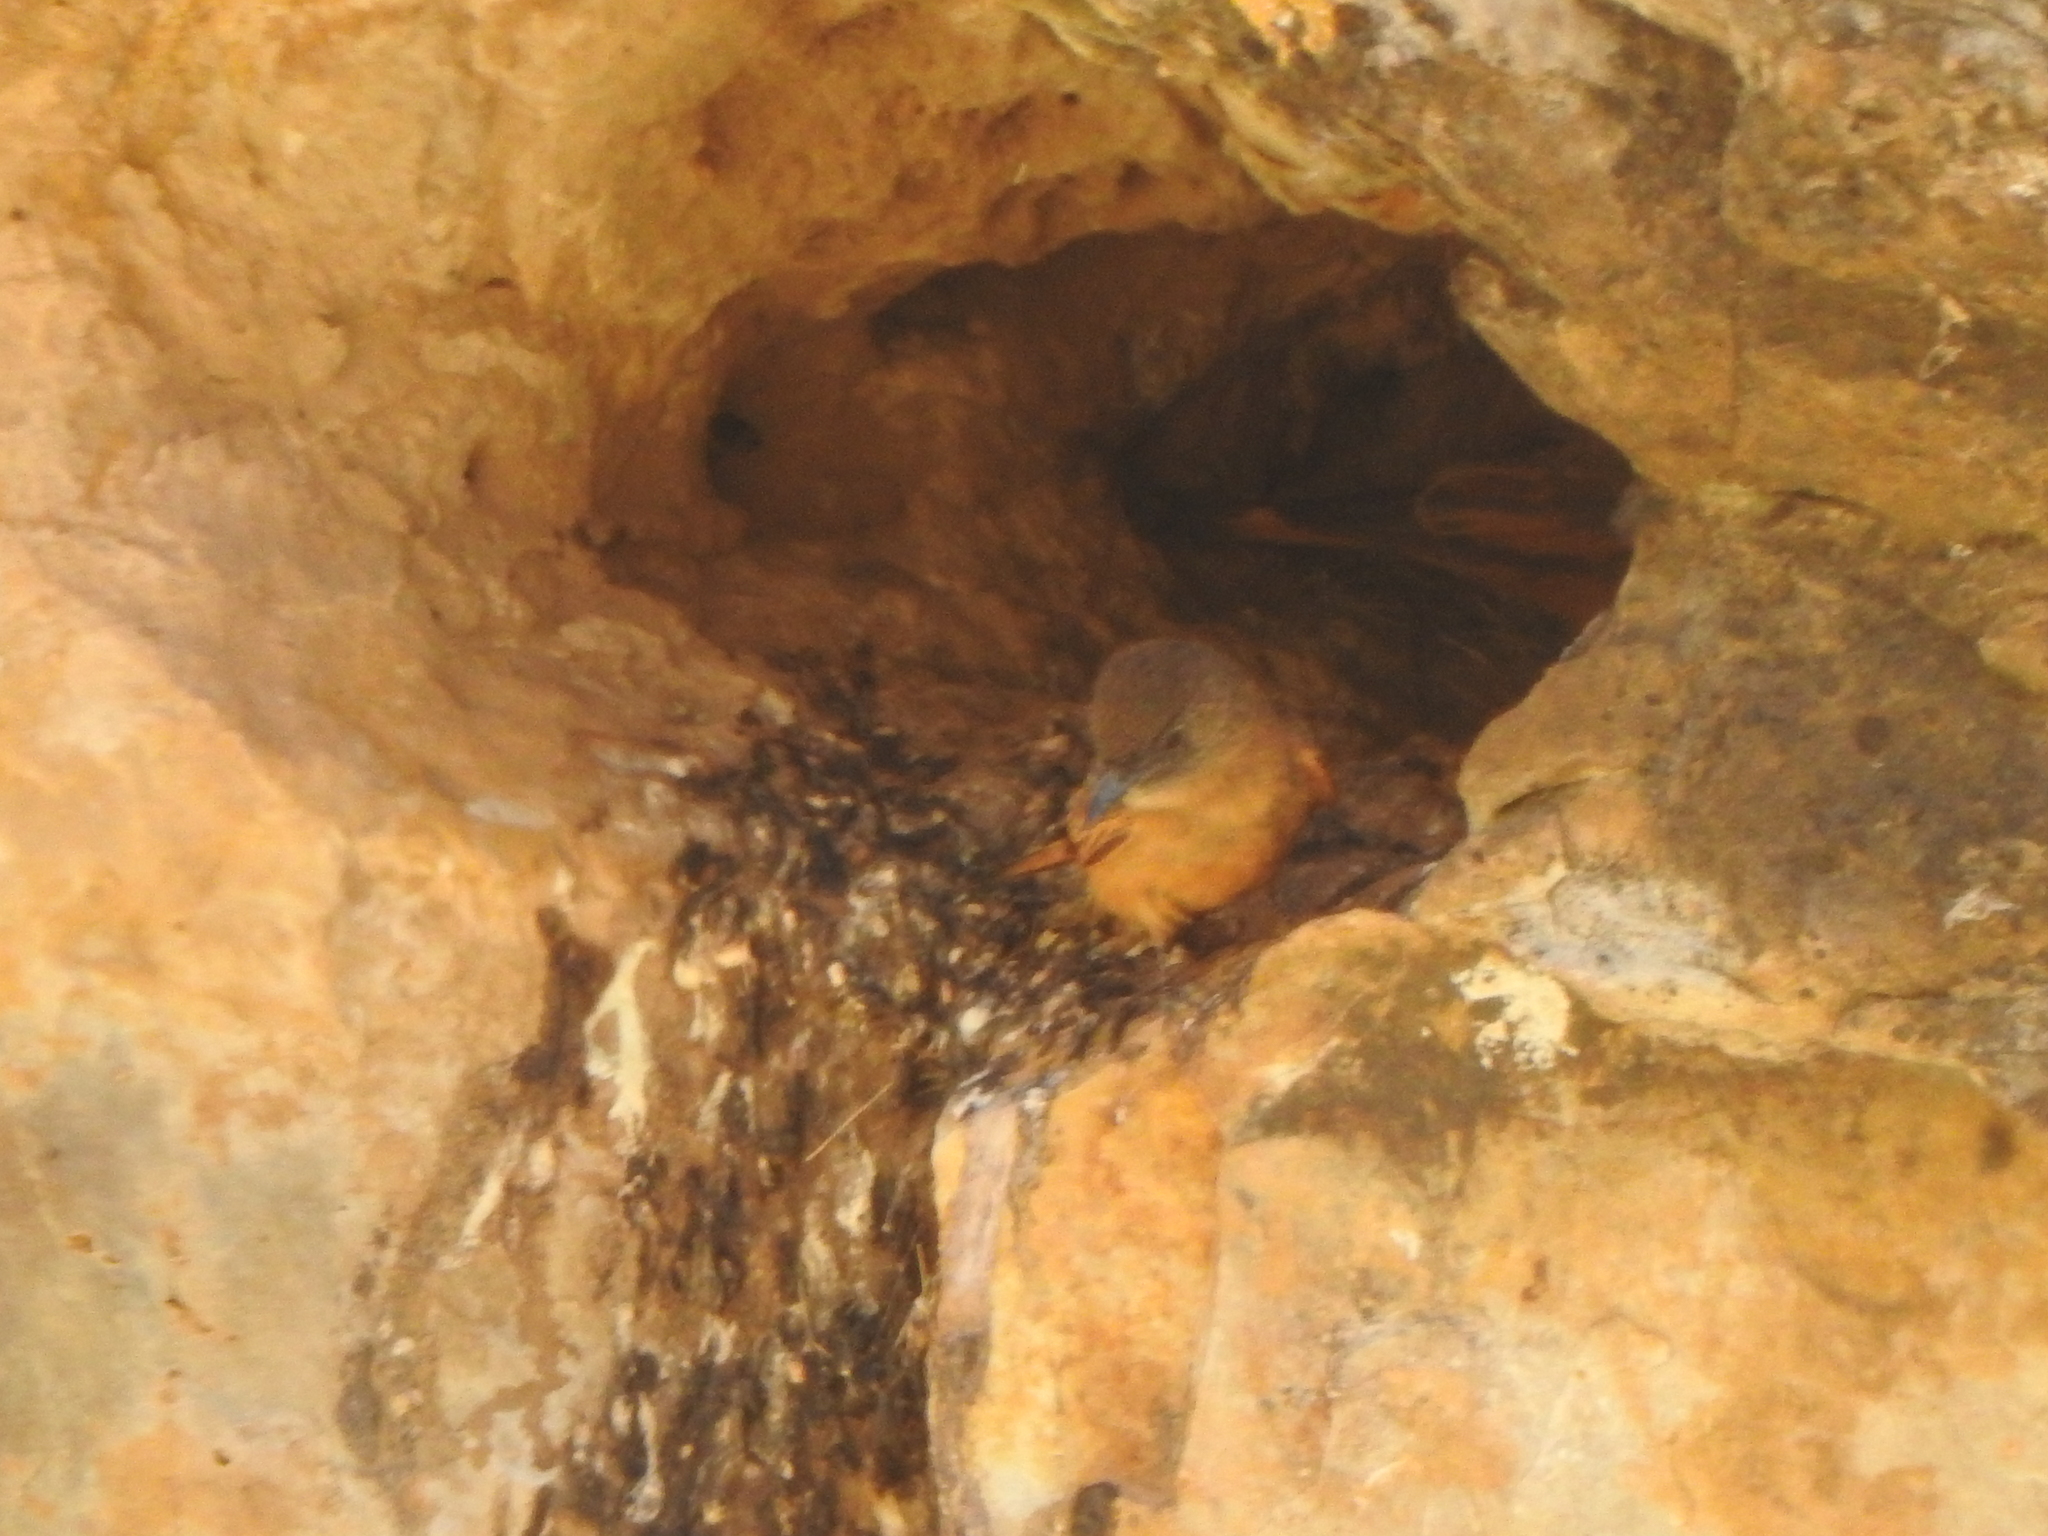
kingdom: Animalia
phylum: Chordata
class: Aves
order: Passeriformes
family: Tyrannidae
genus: Hirundinea
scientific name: Hirundinea ferruginea
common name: Cliff flycatcher
